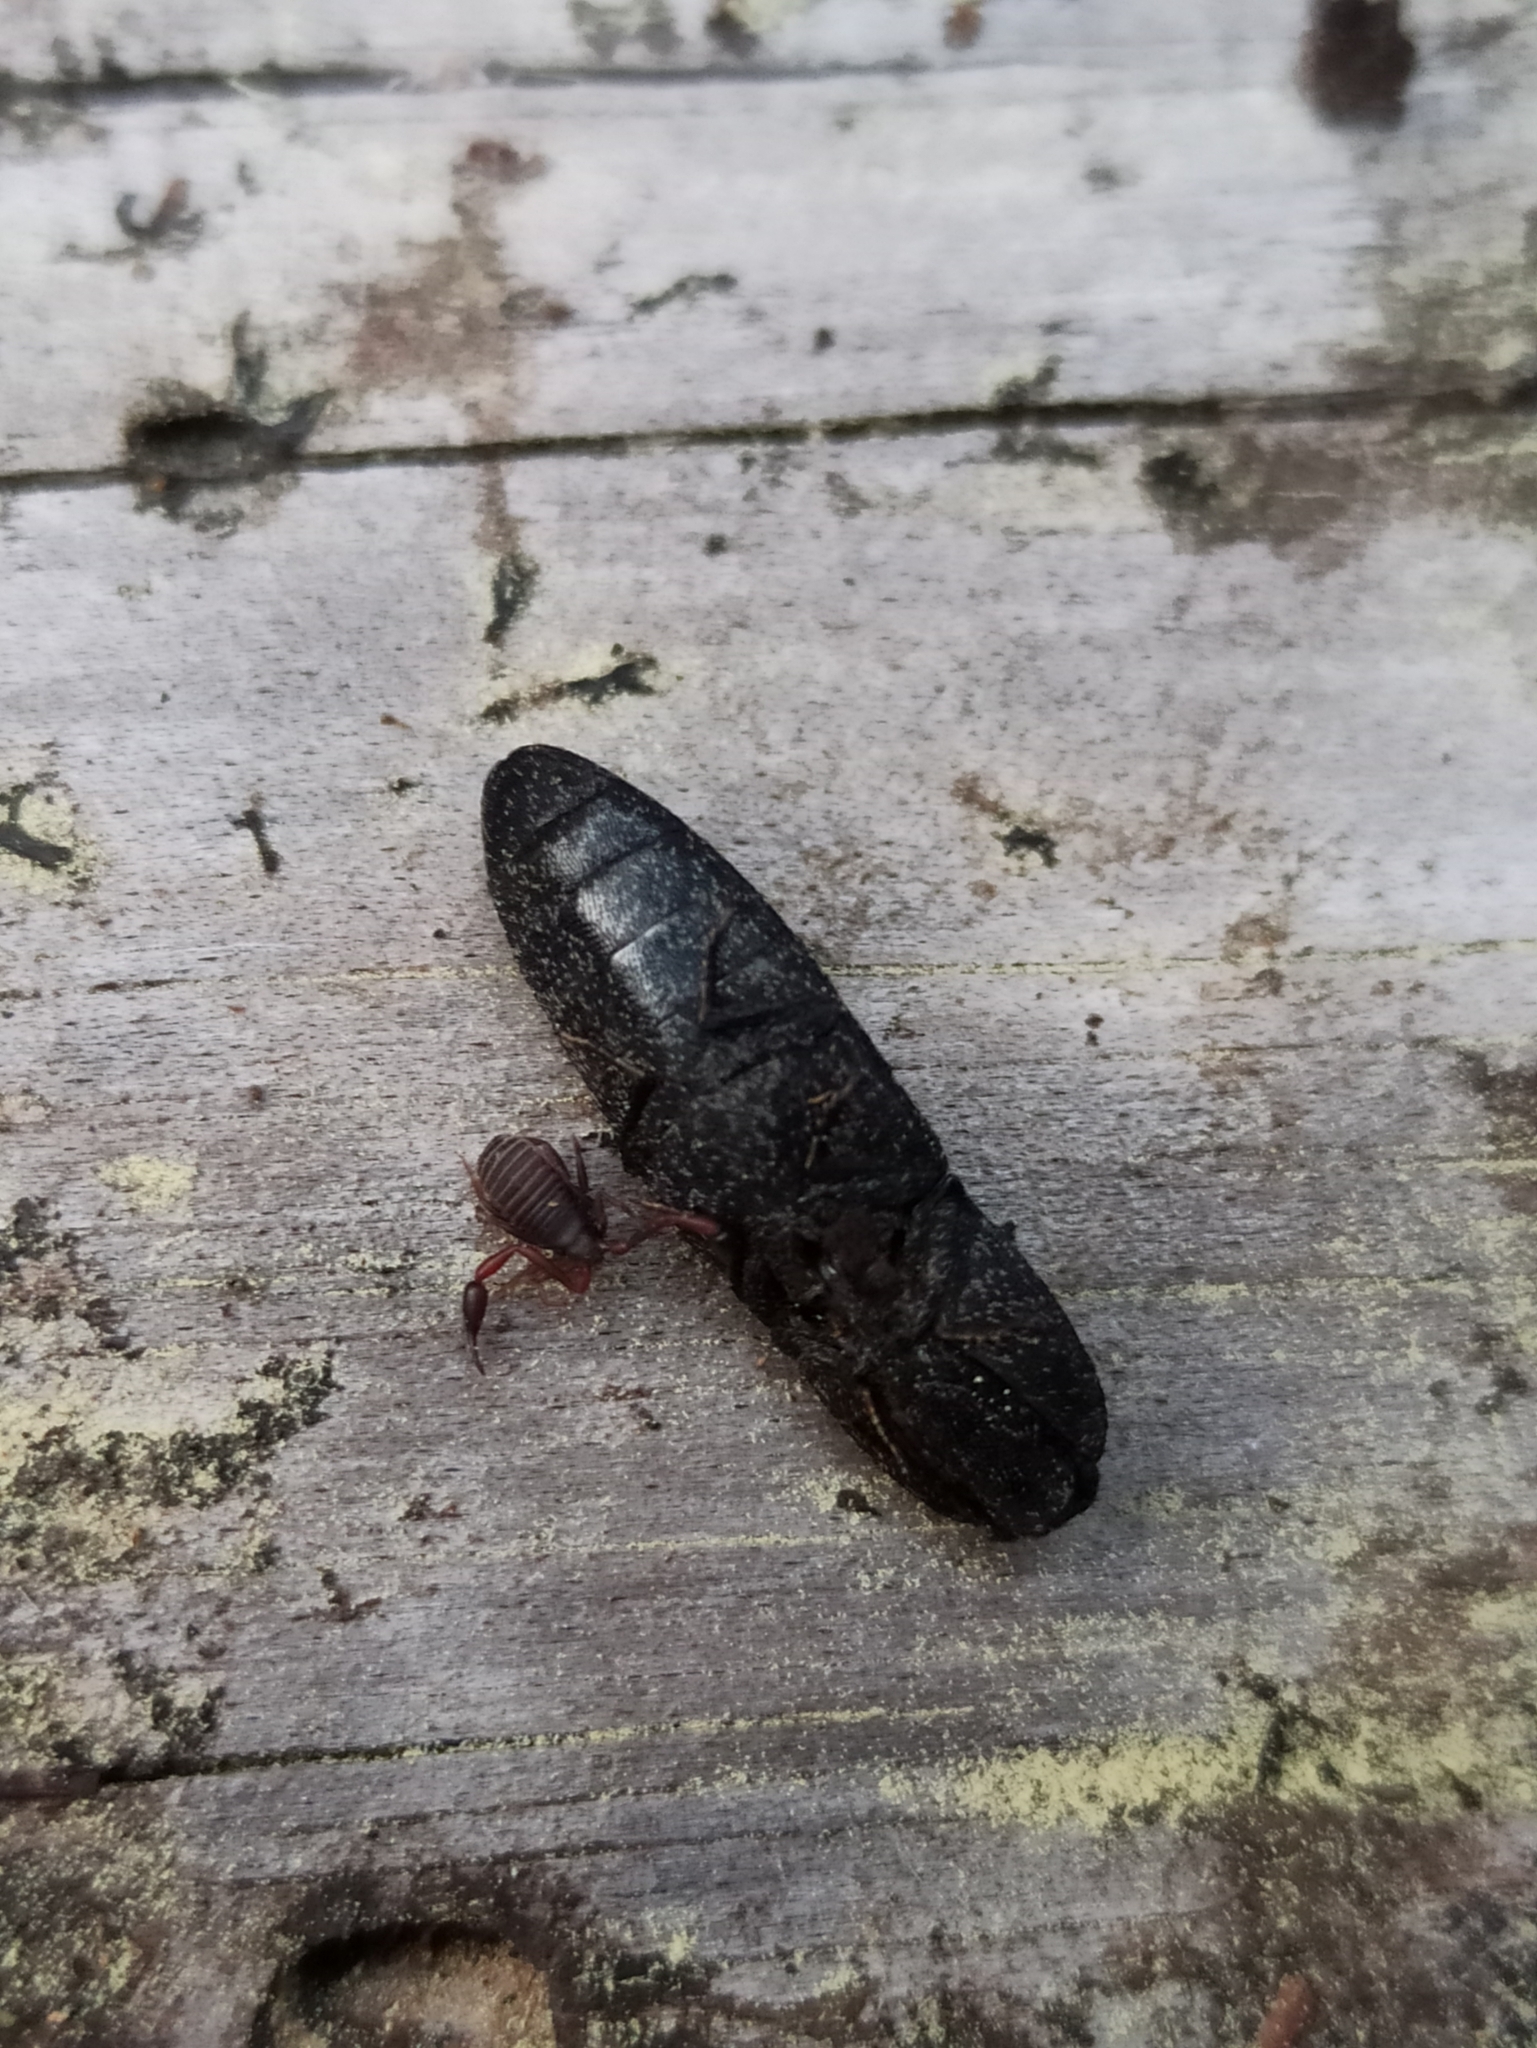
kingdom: Animalia
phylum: Arthropoda
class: Insecta
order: Coleoptera
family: Elateridae
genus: Lacon
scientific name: Lacon punctatus
